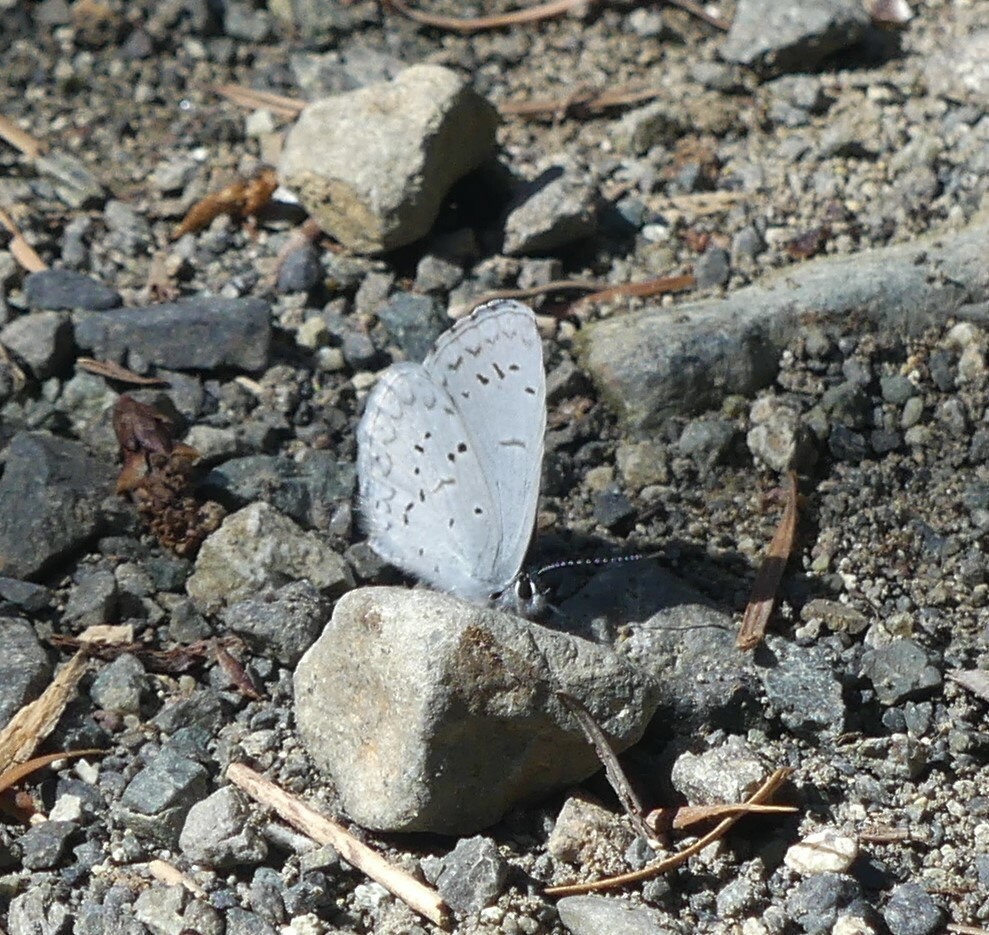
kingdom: Animalia
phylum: Arthropoda
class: Insecta
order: Lepidoptera
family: Lycaenidae
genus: Celastrina
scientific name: Celastrina ladon
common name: Spring azure
